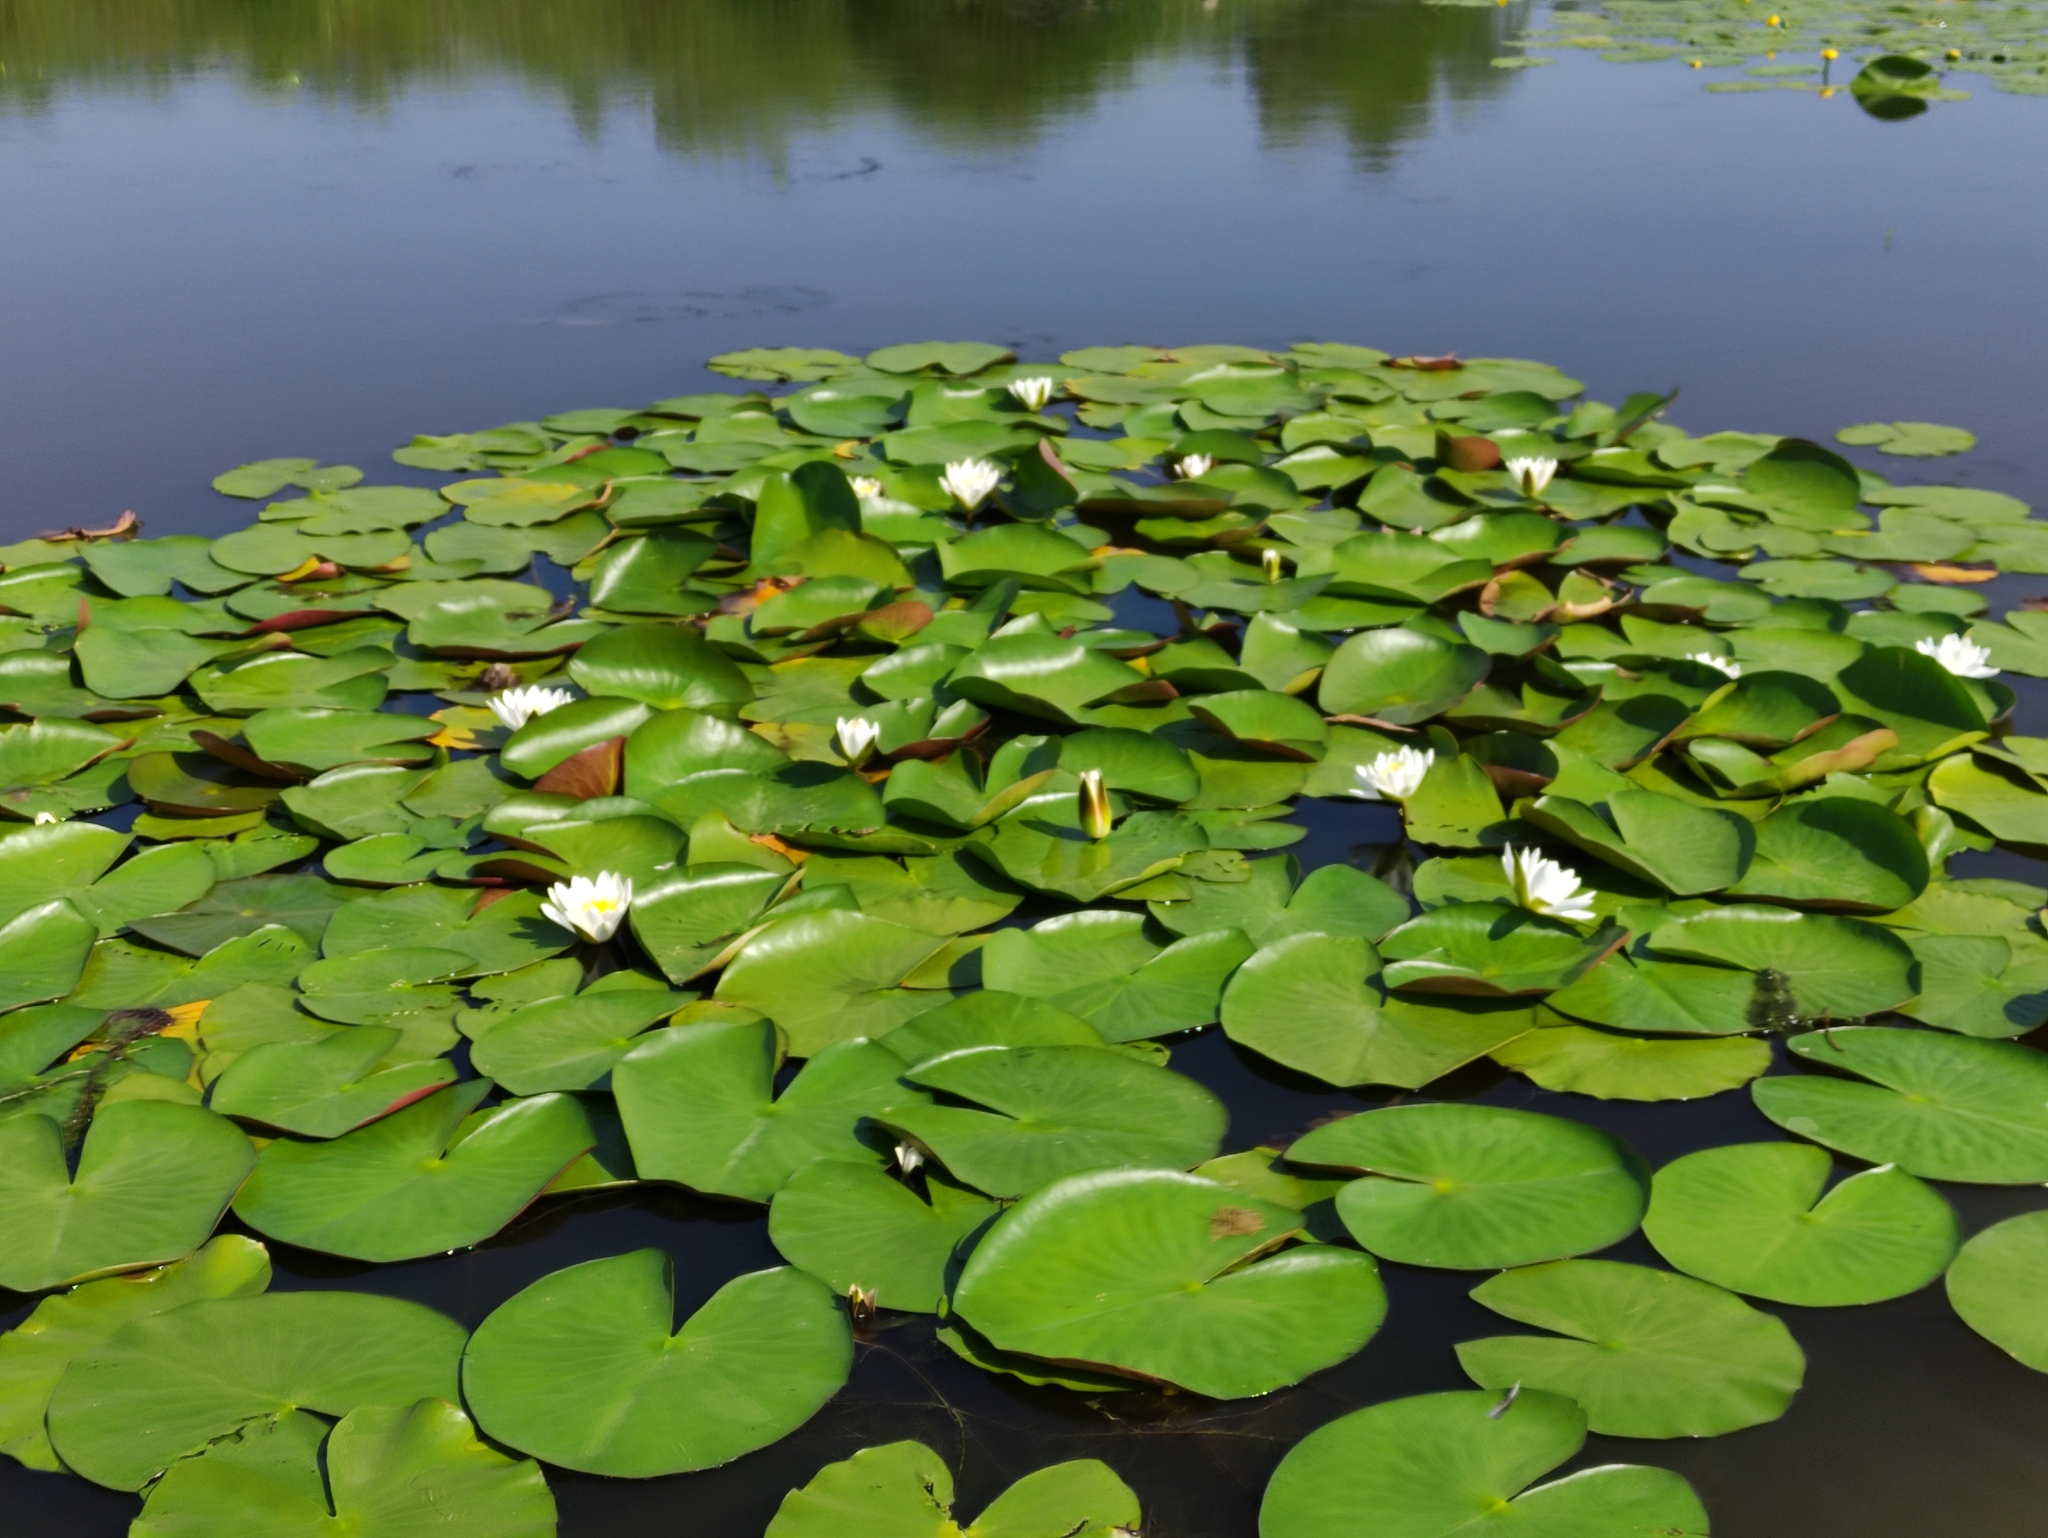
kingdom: Plantae
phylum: Tracheophyta
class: Magnoliopsida
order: Nymphaeales
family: Nymphaeaceae
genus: Nymphaea
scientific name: Nymphaea alba
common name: White water-lily
